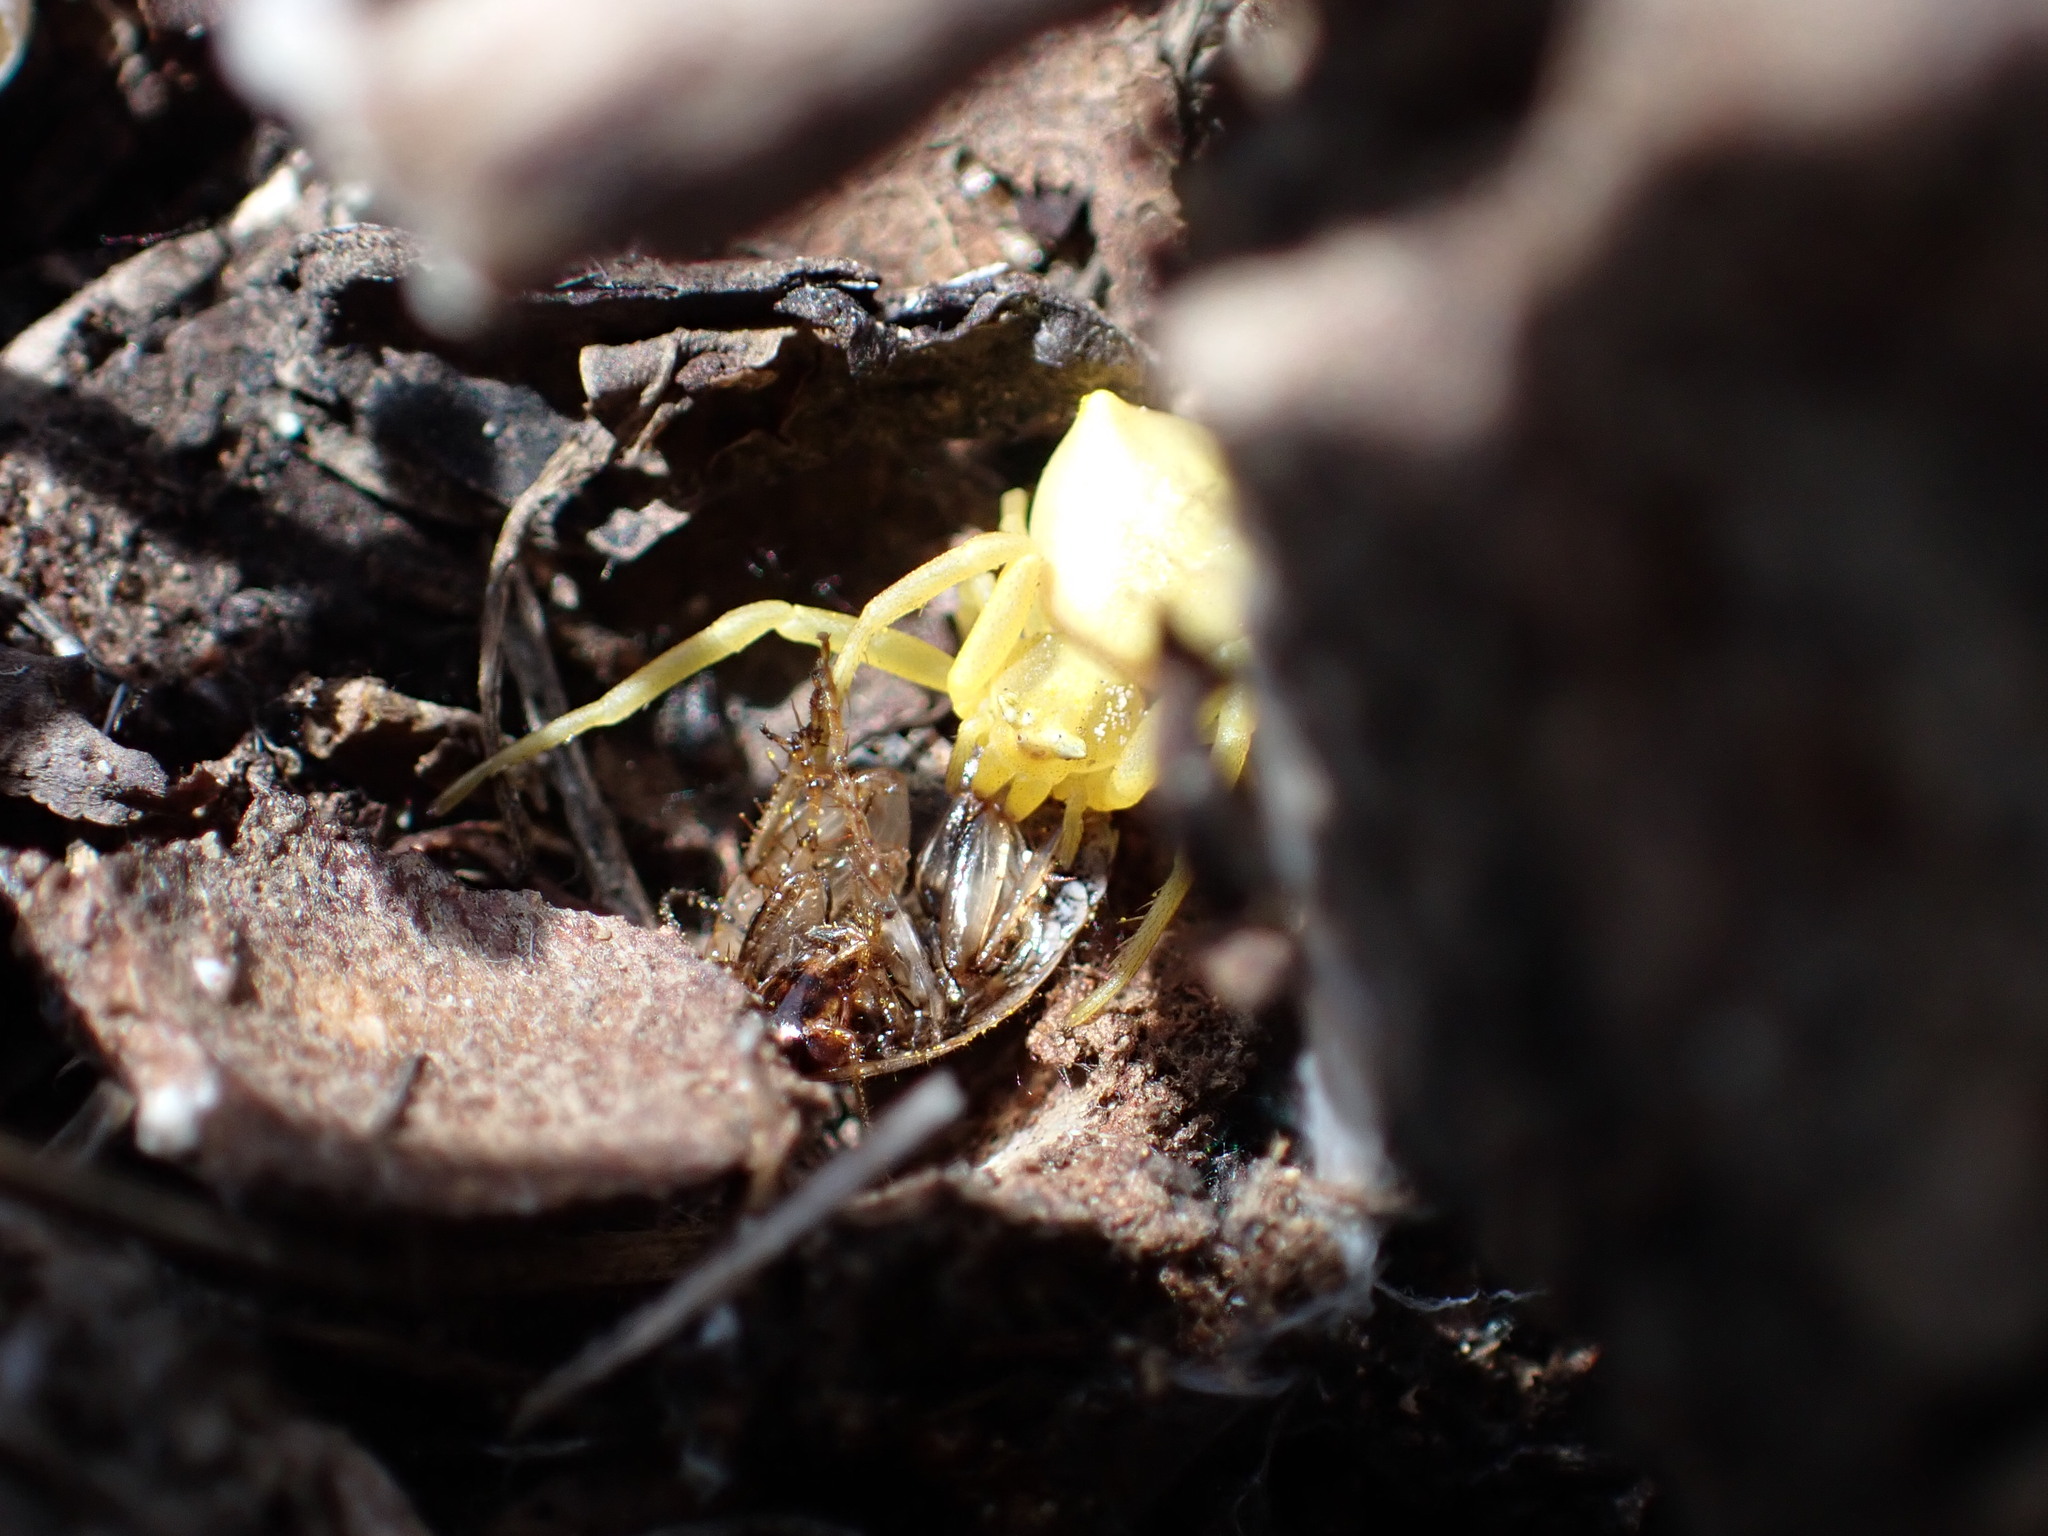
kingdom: Animalia
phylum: Arthropoda
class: Arachnida
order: Araneae
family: Thomisidae
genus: Thomisus
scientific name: Thomisus onustus
